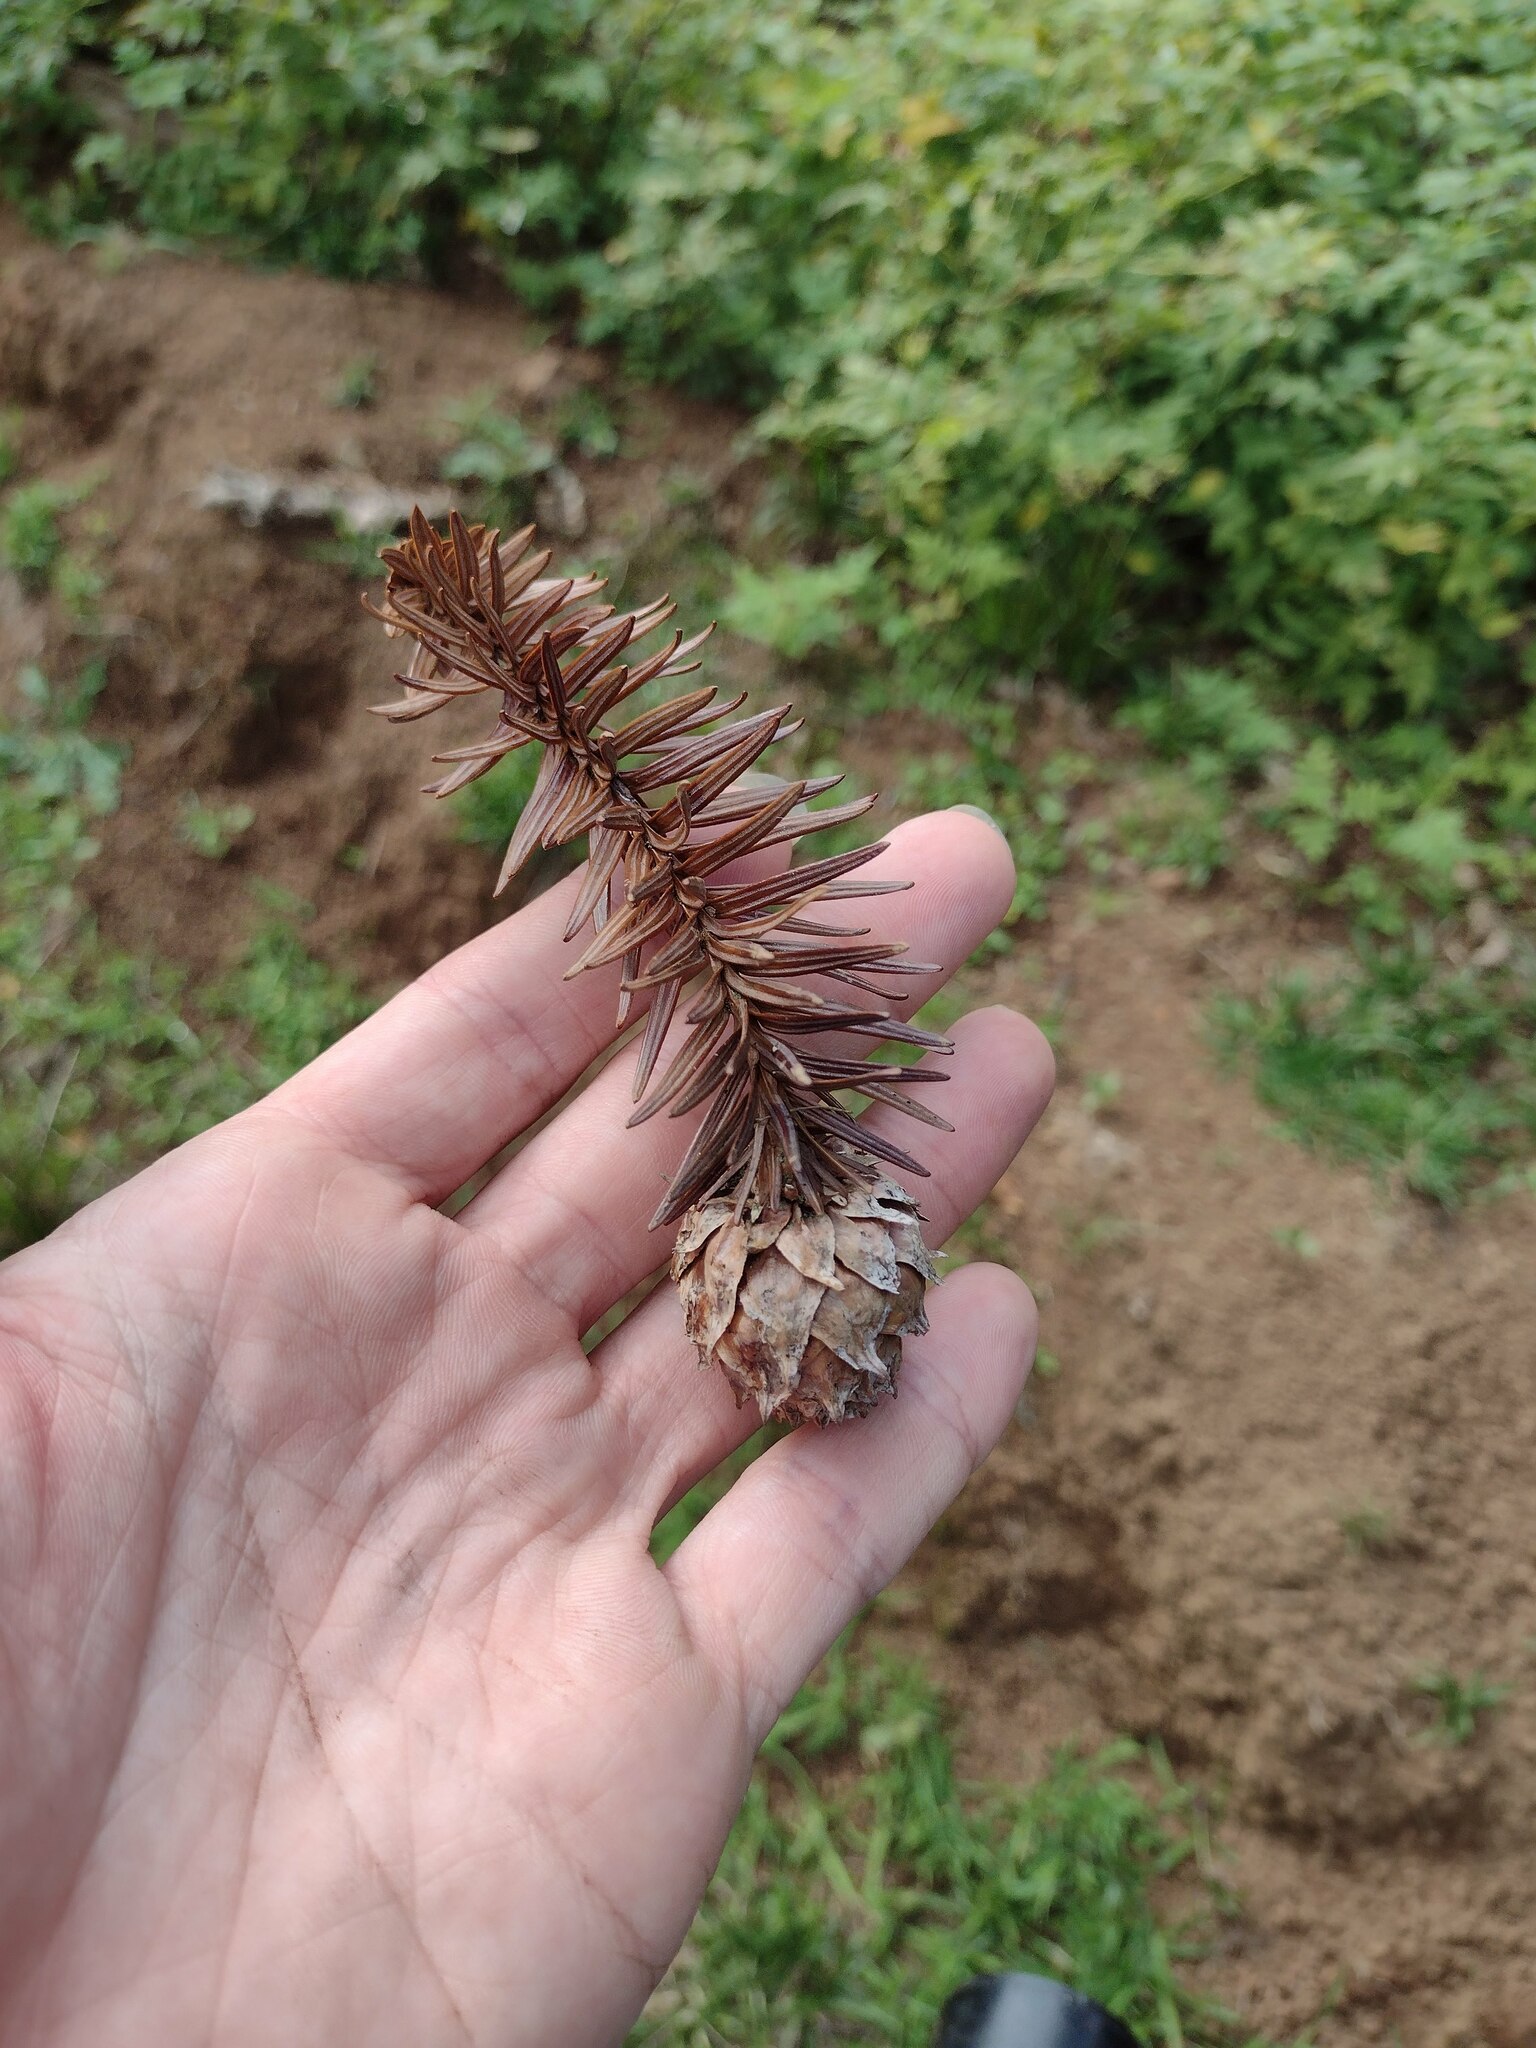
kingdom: Plantae
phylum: Tracheophyta
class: Pinopsida
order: Pinales
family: Cupressaceae
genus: Cunninghamia
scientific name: Cunninghamia lanceolata
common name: Chinese fir
